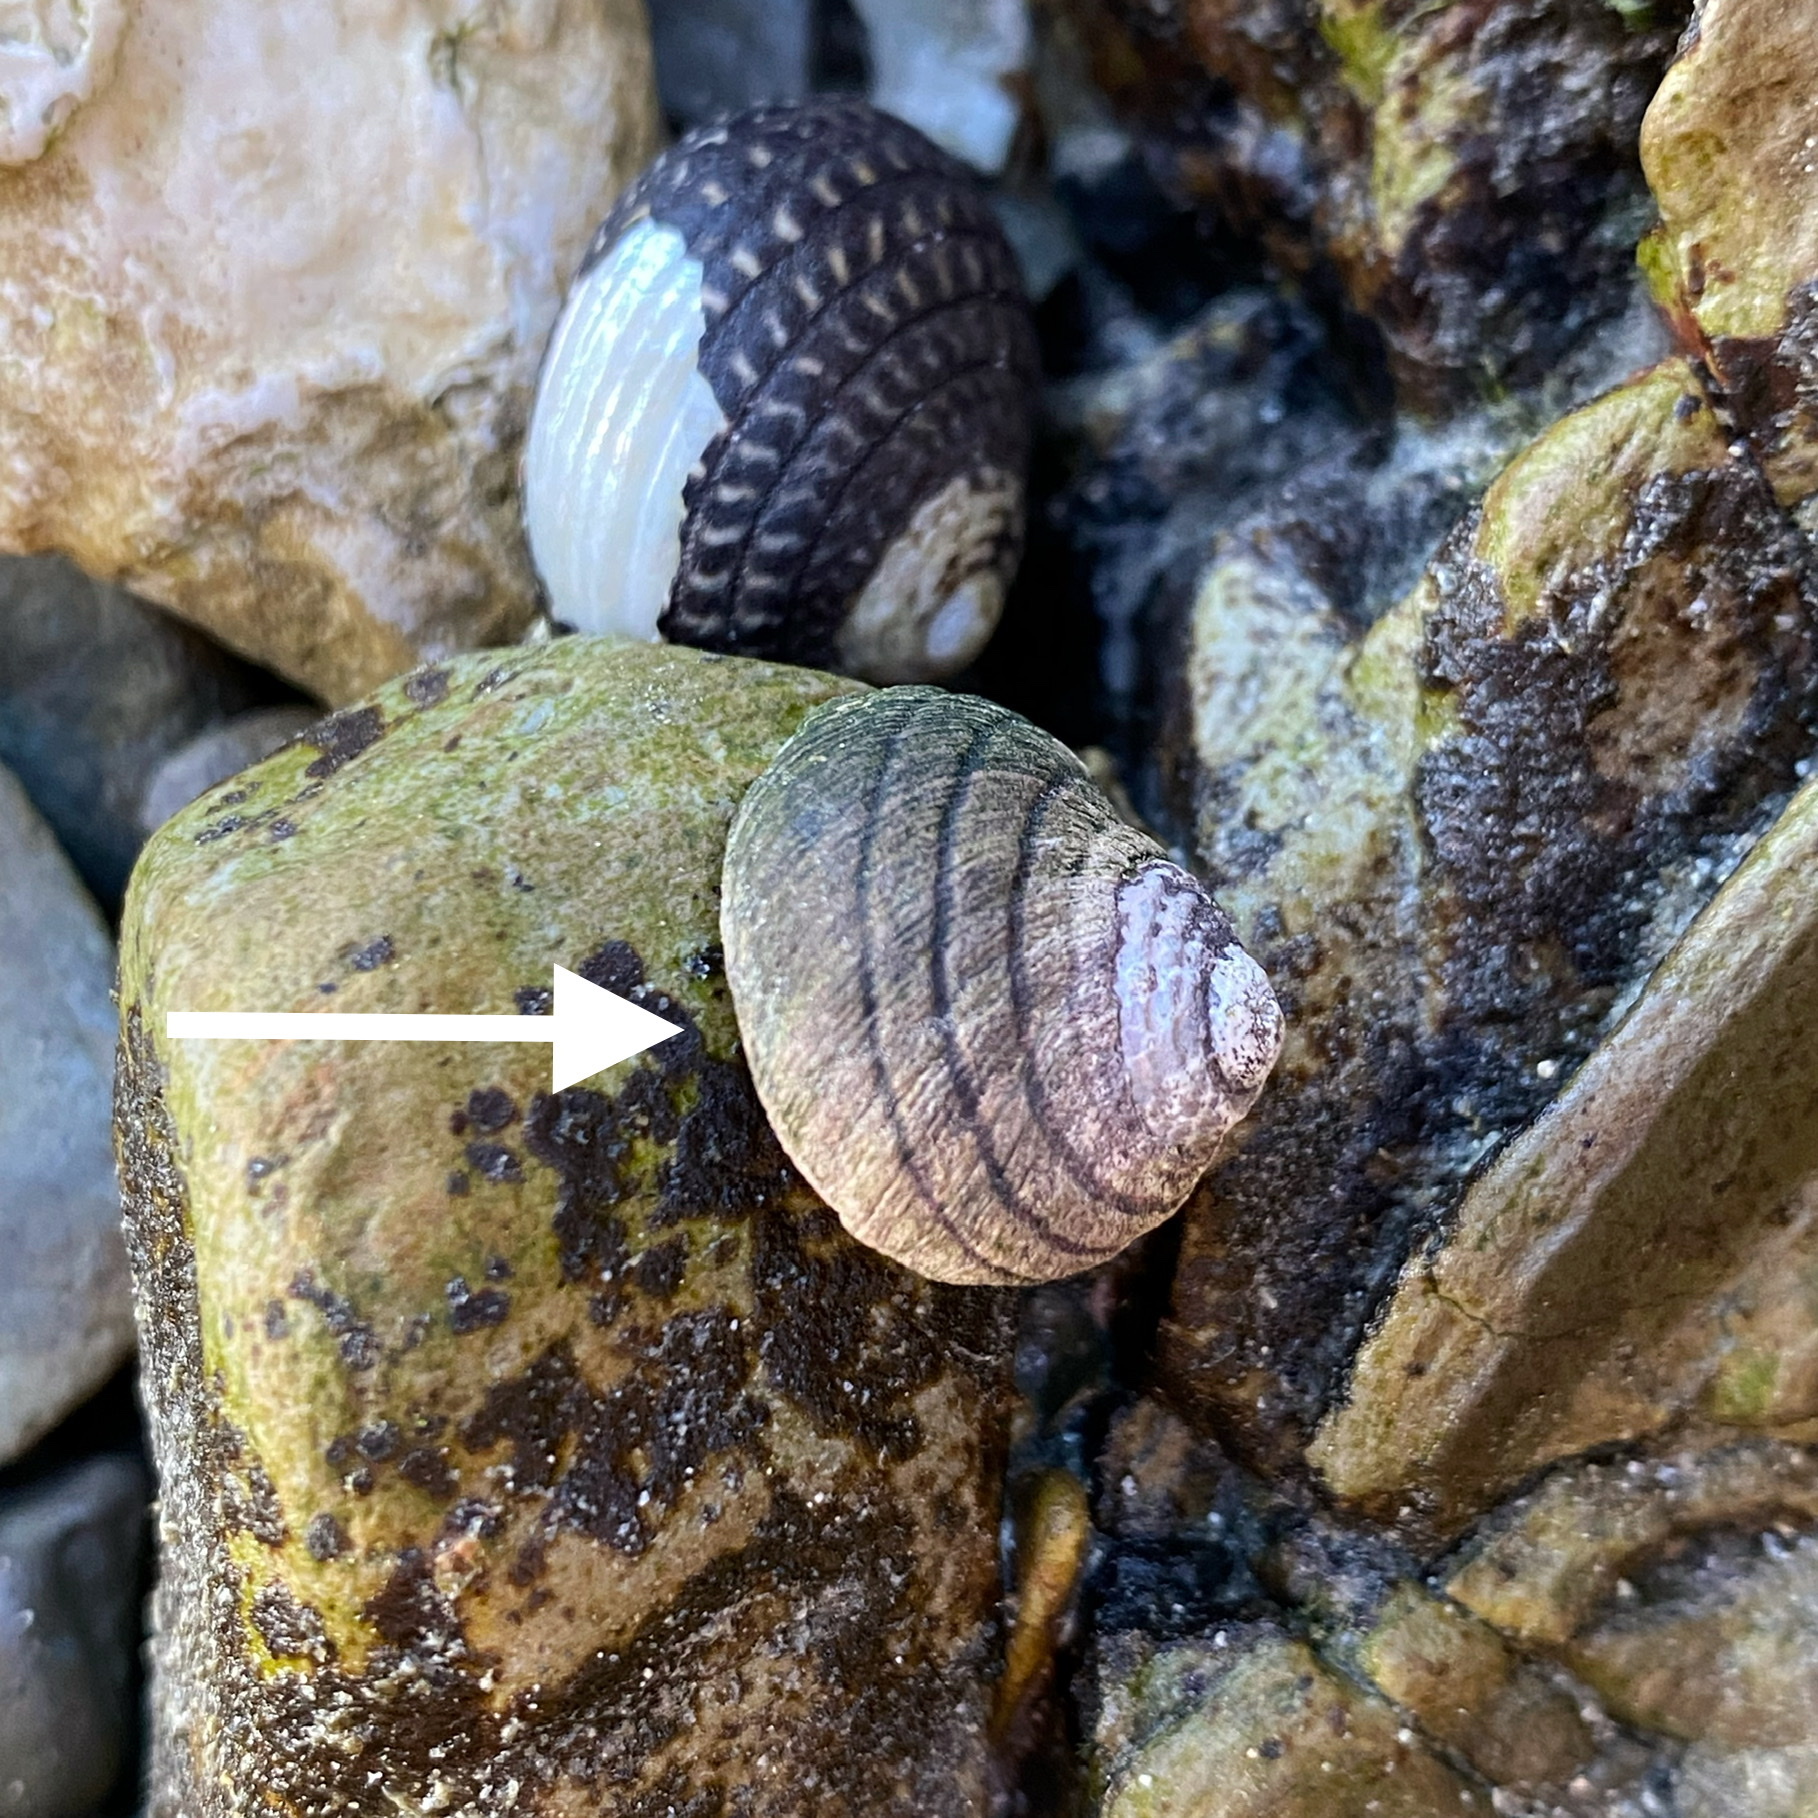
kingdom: Animalia
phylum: Mollusca
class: Gastropoda
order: Trochida
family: Trochidae
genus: Diloma
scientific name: Diloma aethiops
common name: Scorched monodont
